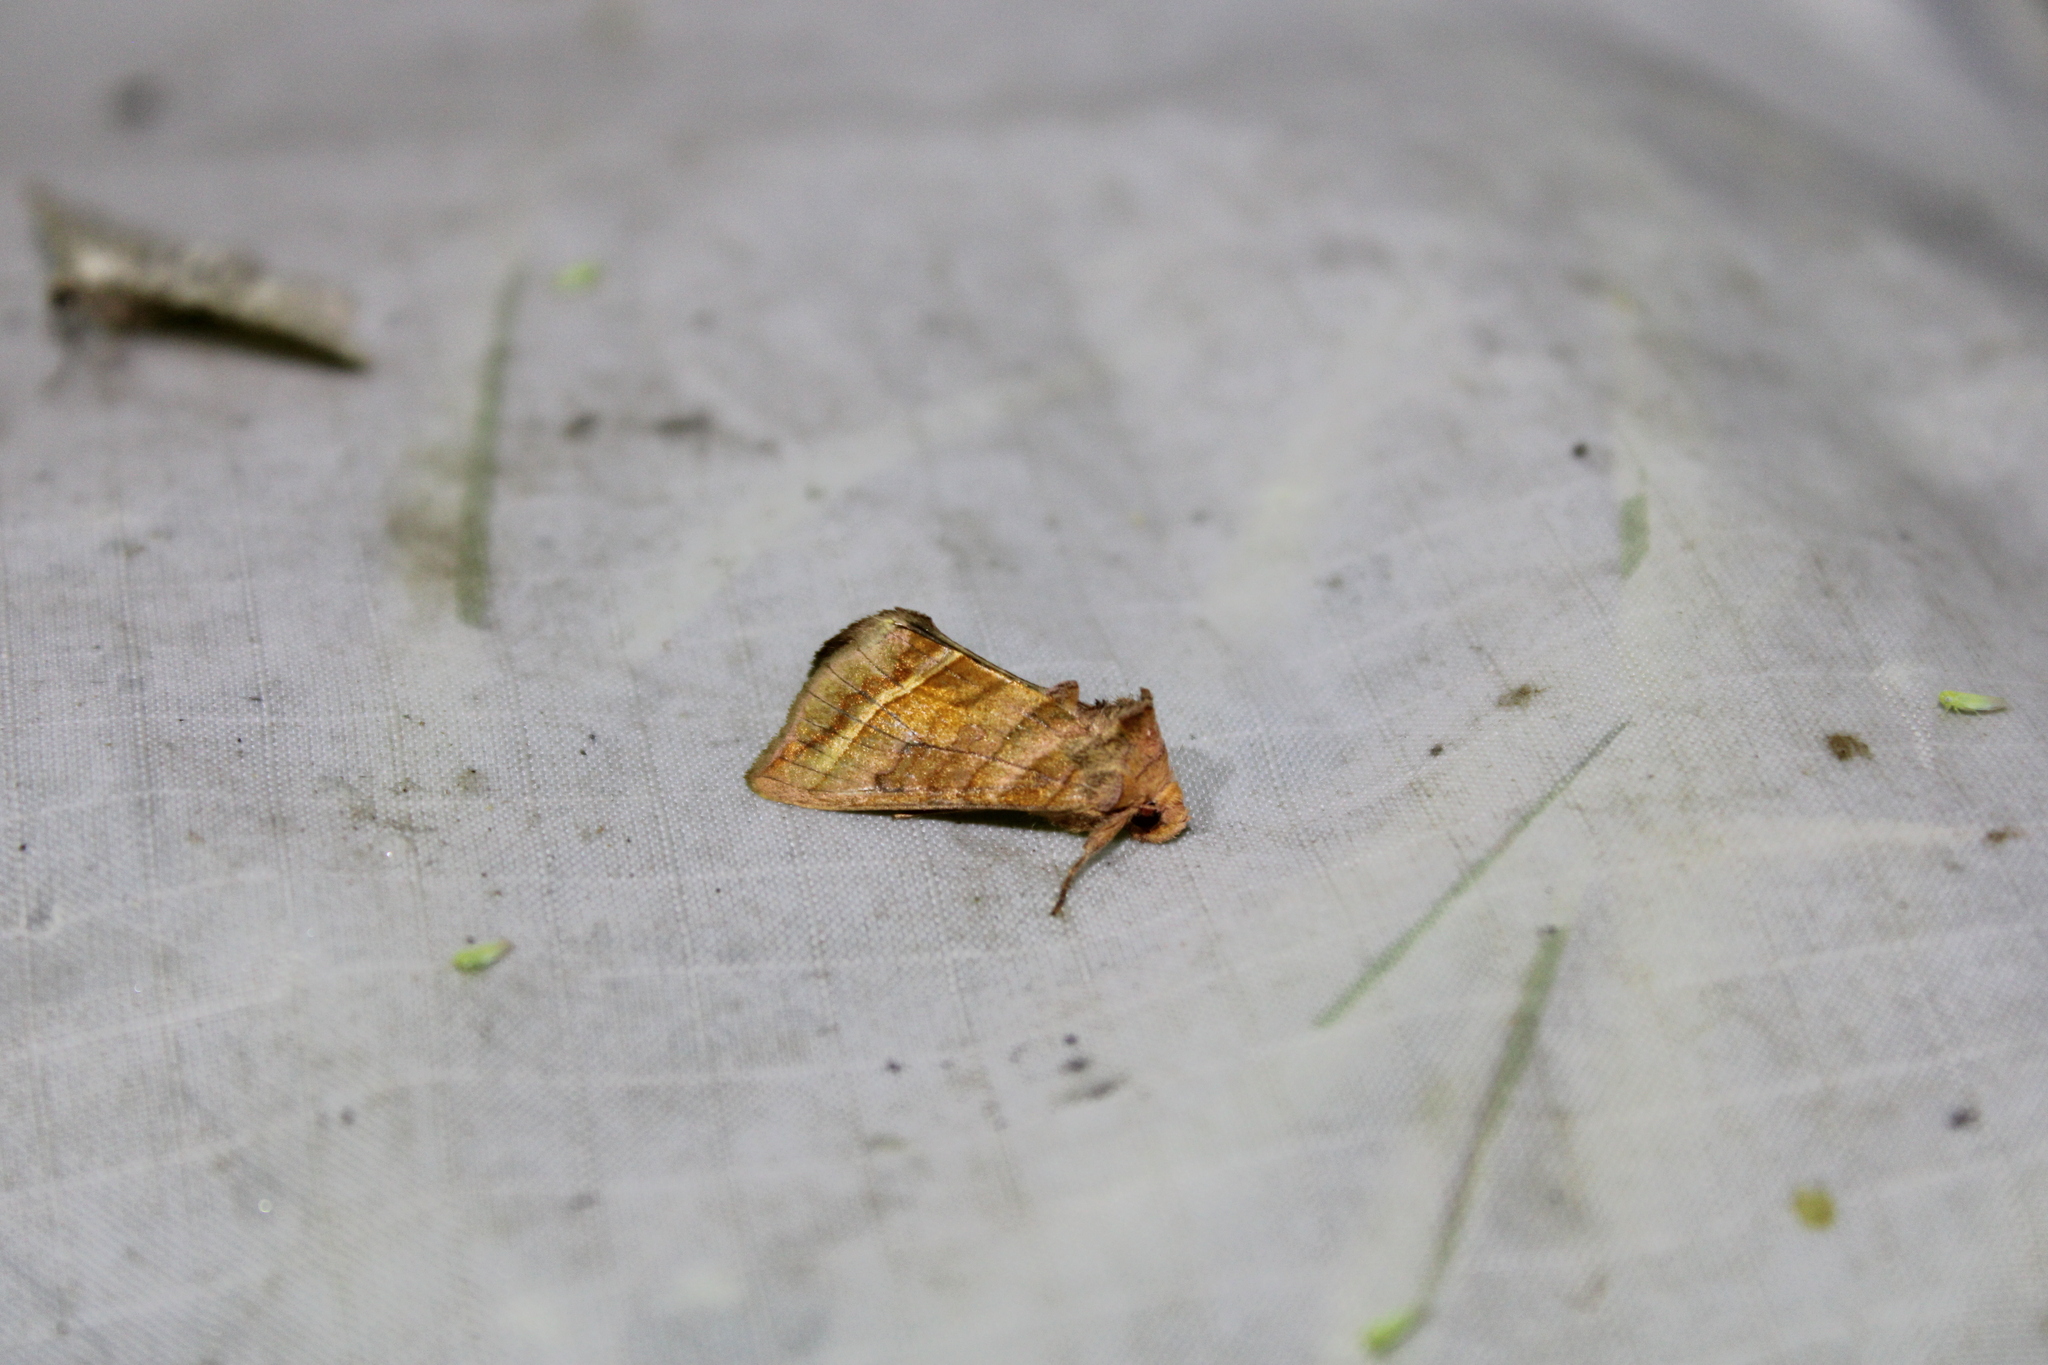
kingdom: Animalia
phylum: Arthropoda
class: Insecta
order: Lepidoptera
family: Noctuidae
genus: Diachrysia
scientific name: Diachrysia aereoides
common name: Dark-spotted looper moth
